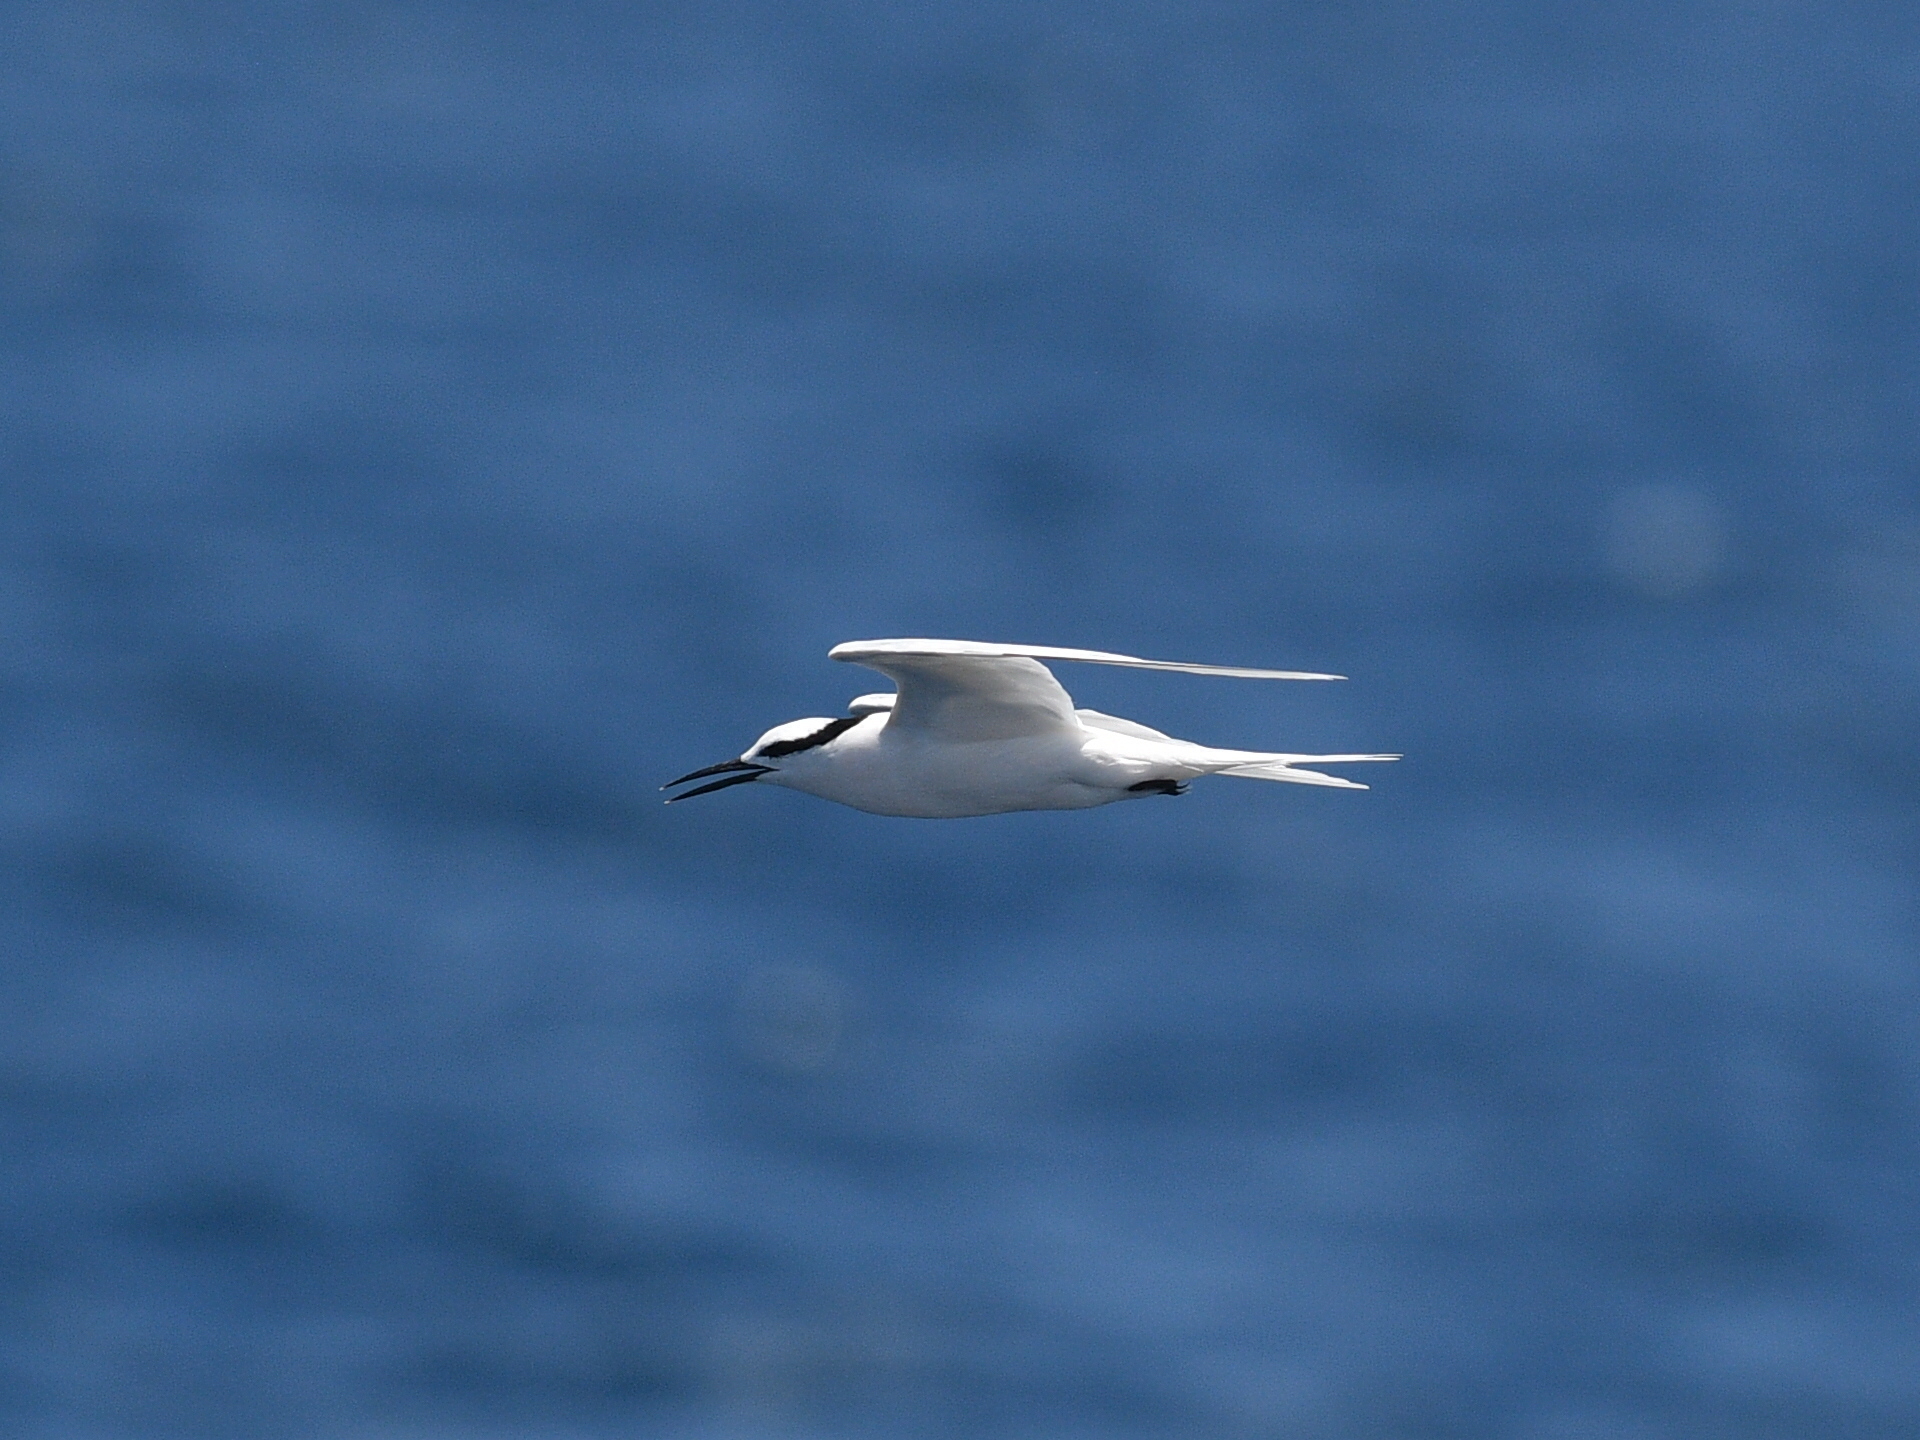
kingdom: Animalia
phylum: Chordata
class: Aves
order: Charadriiformes
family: Laridae
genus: Sterna
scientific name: Sterna sumatrana
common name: Black-naped tern
